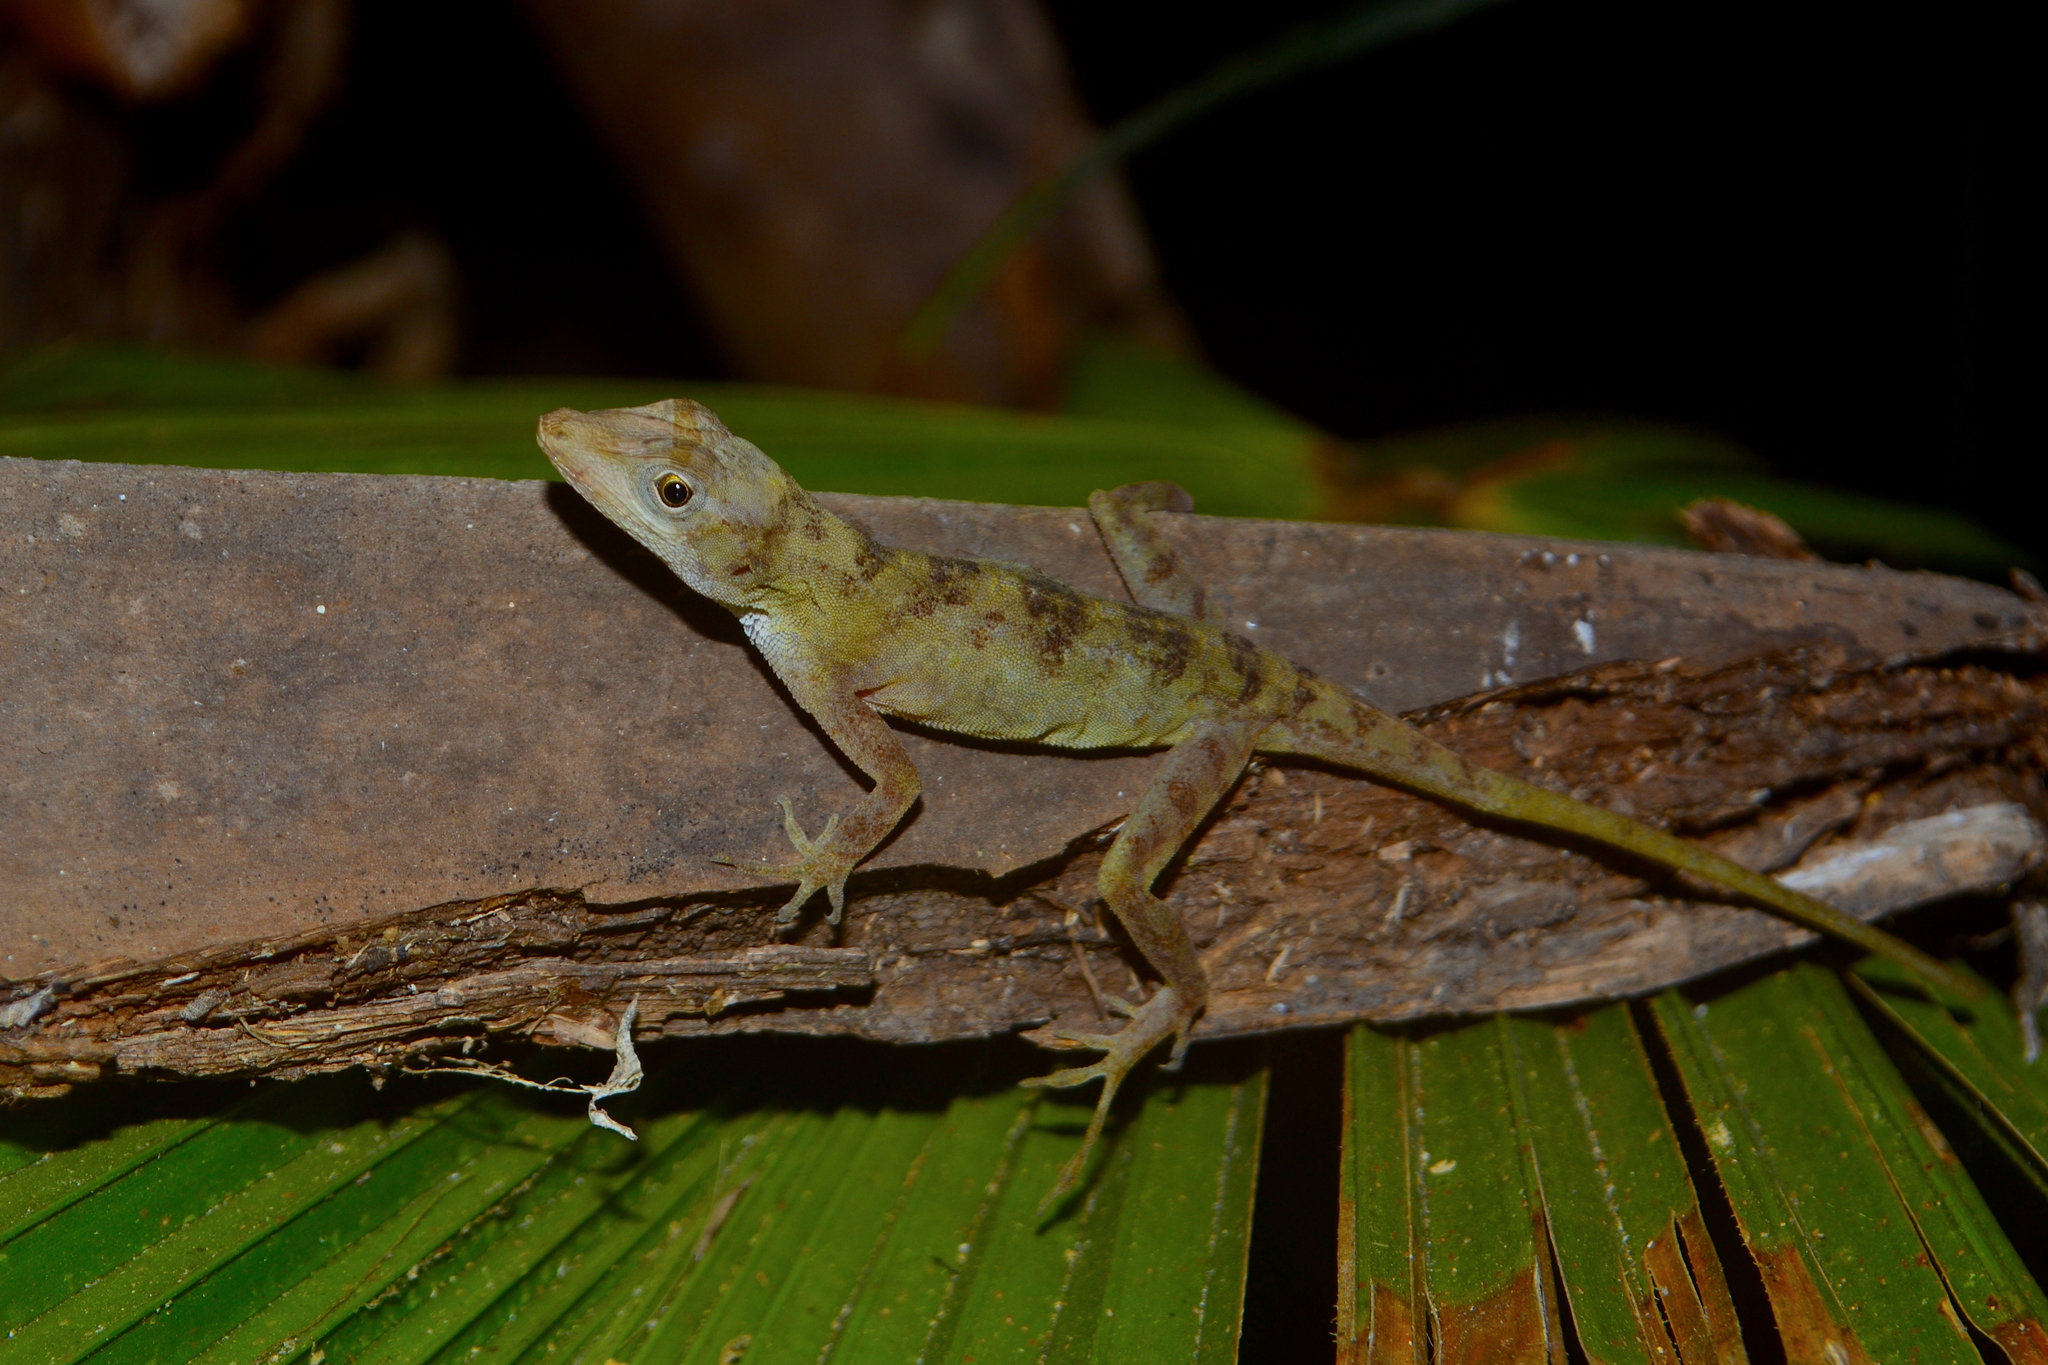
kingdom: Animalia
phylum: Chordata
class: Squamata
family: Dactyloidae
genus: Anolis
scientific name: Anolis serranoi
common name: Serrano’s anole
